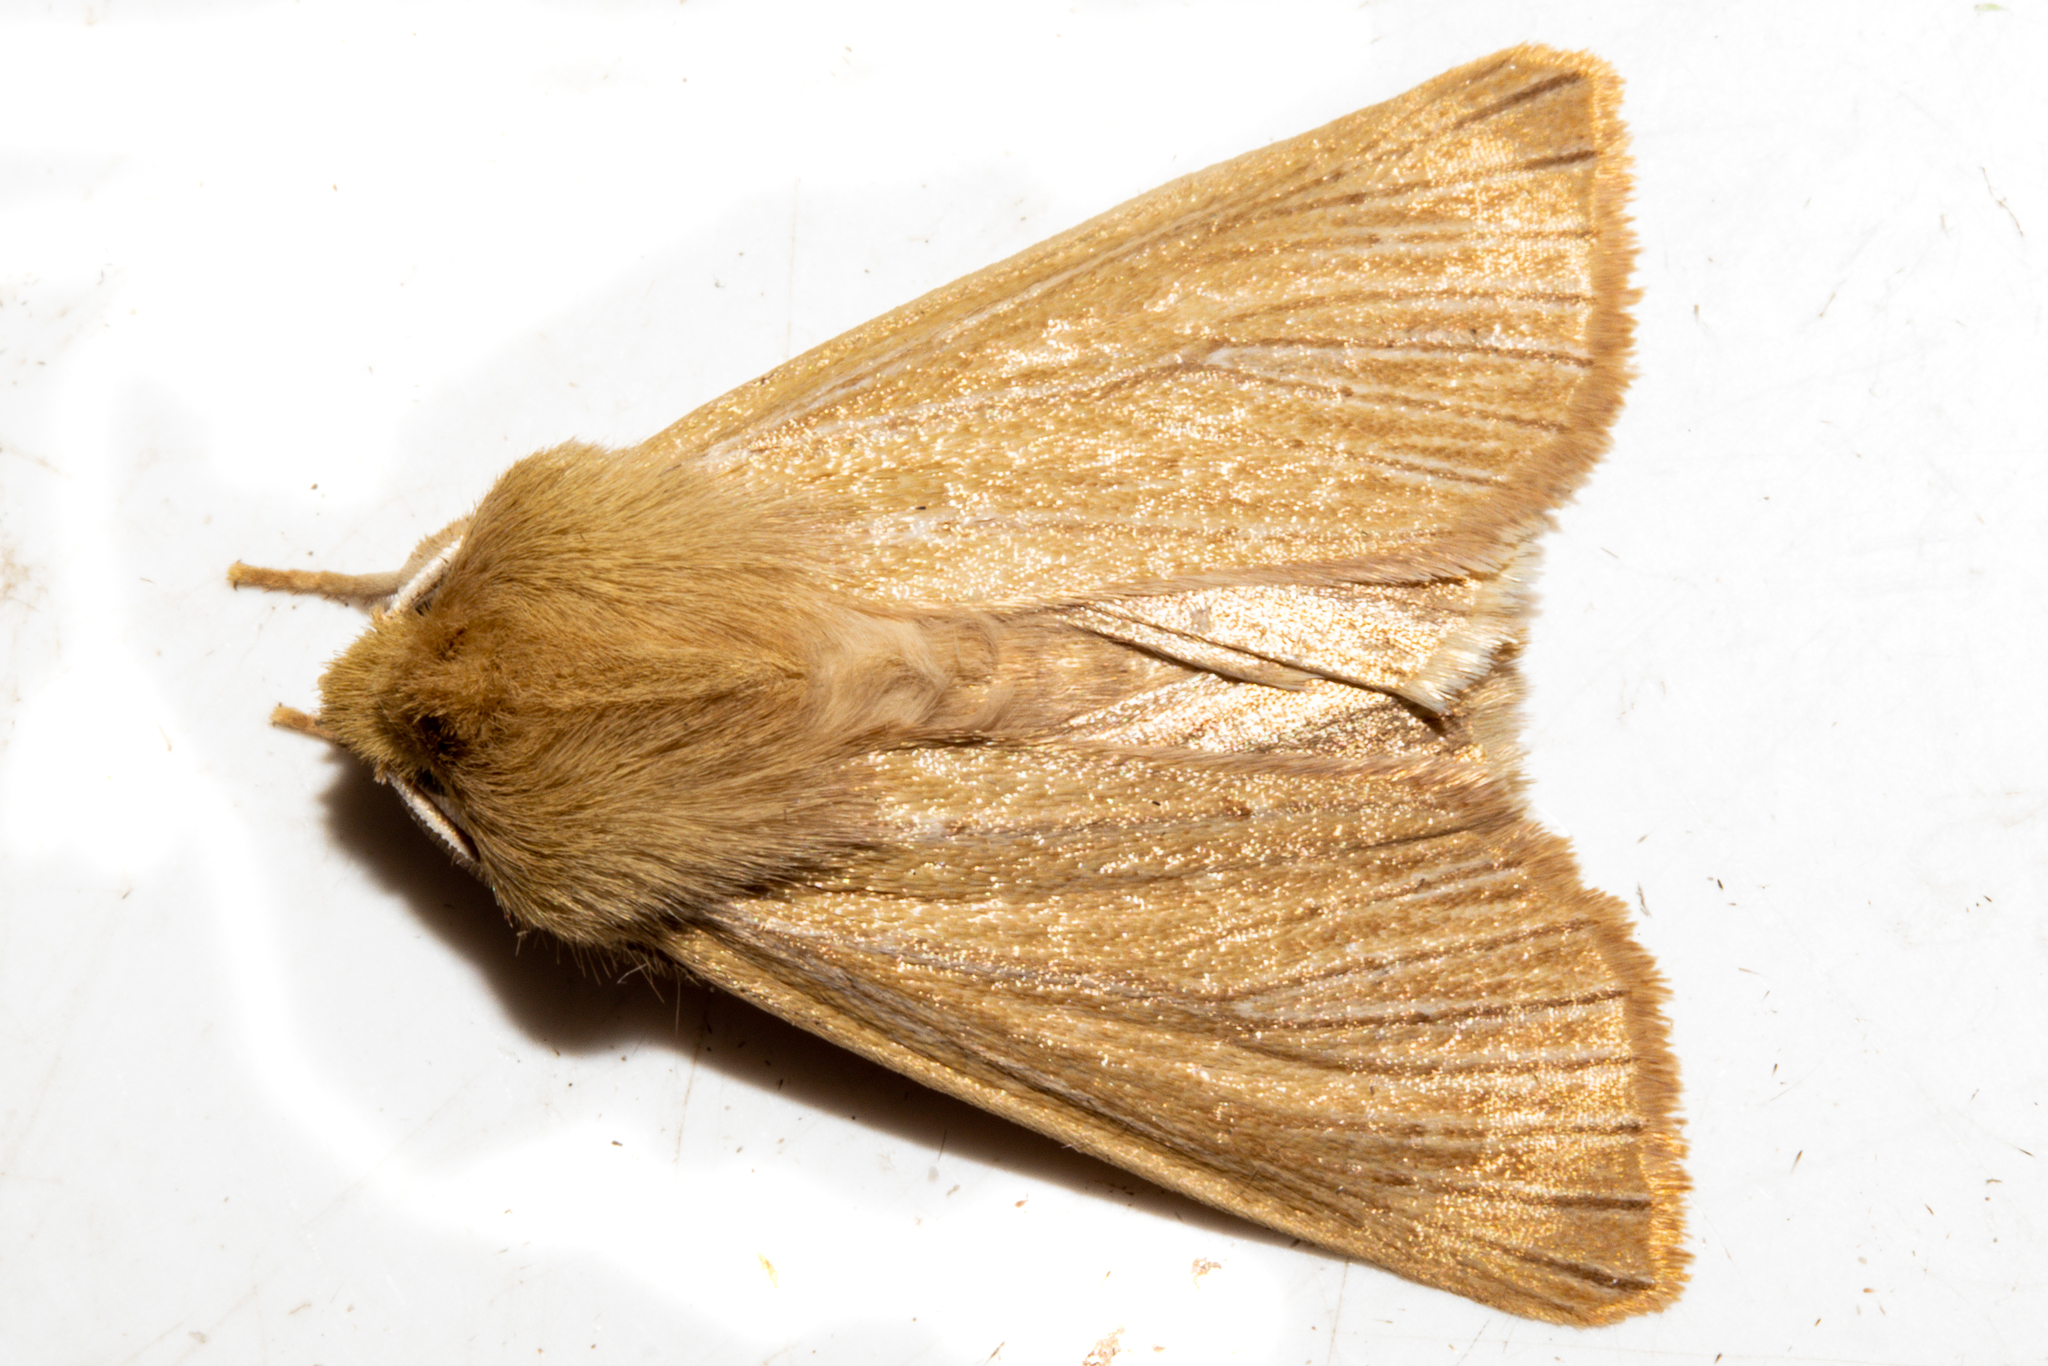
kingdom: Animalia
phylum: Arthropoda
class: Insecta
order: Lepidoptera
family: Noctuidae
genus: Ichneutica
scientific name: Ichneutica arotis
